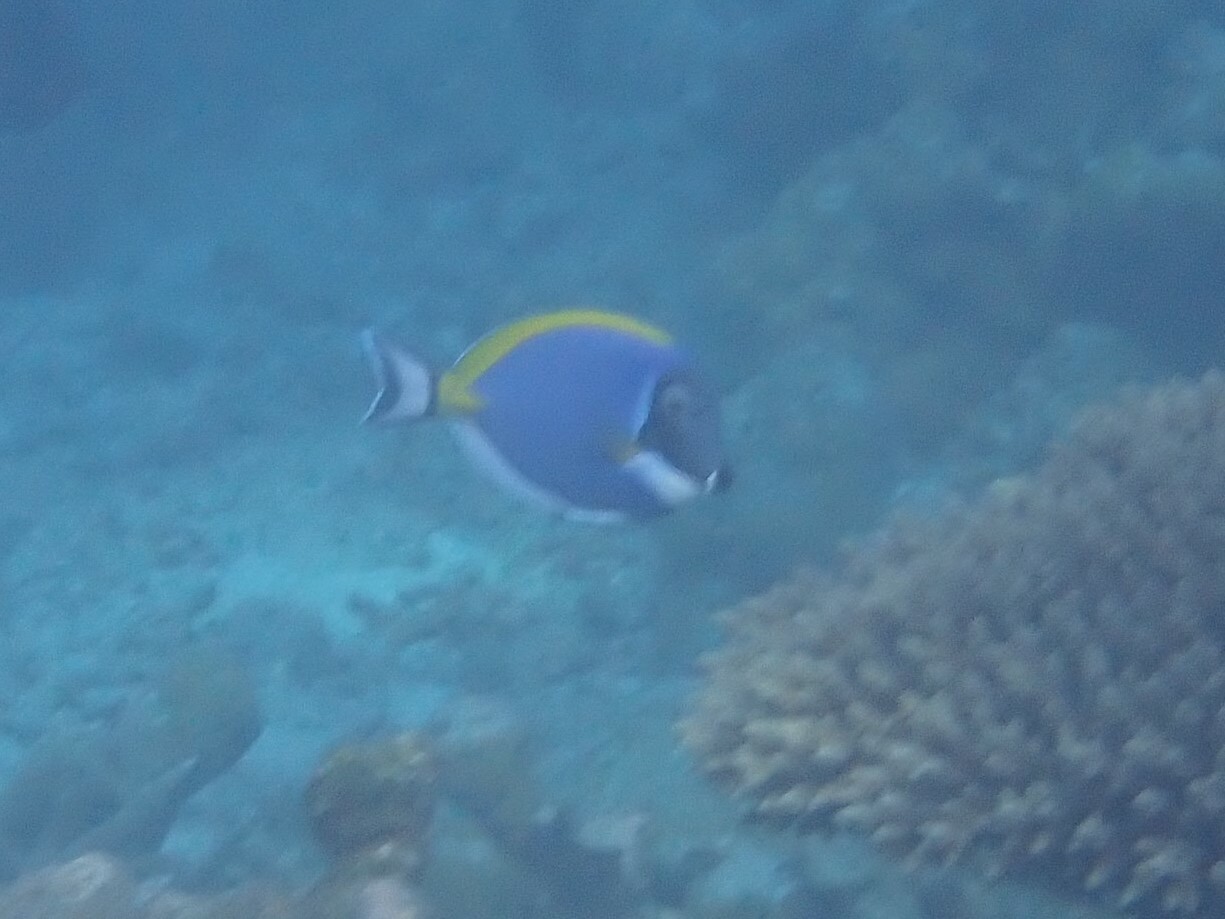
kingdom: Animalia
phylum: Chordata
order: Perciformes
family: Acanthuridae
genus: Acanthurus
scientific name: Acanthurus leucosternon
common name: Blue surgeonfish
